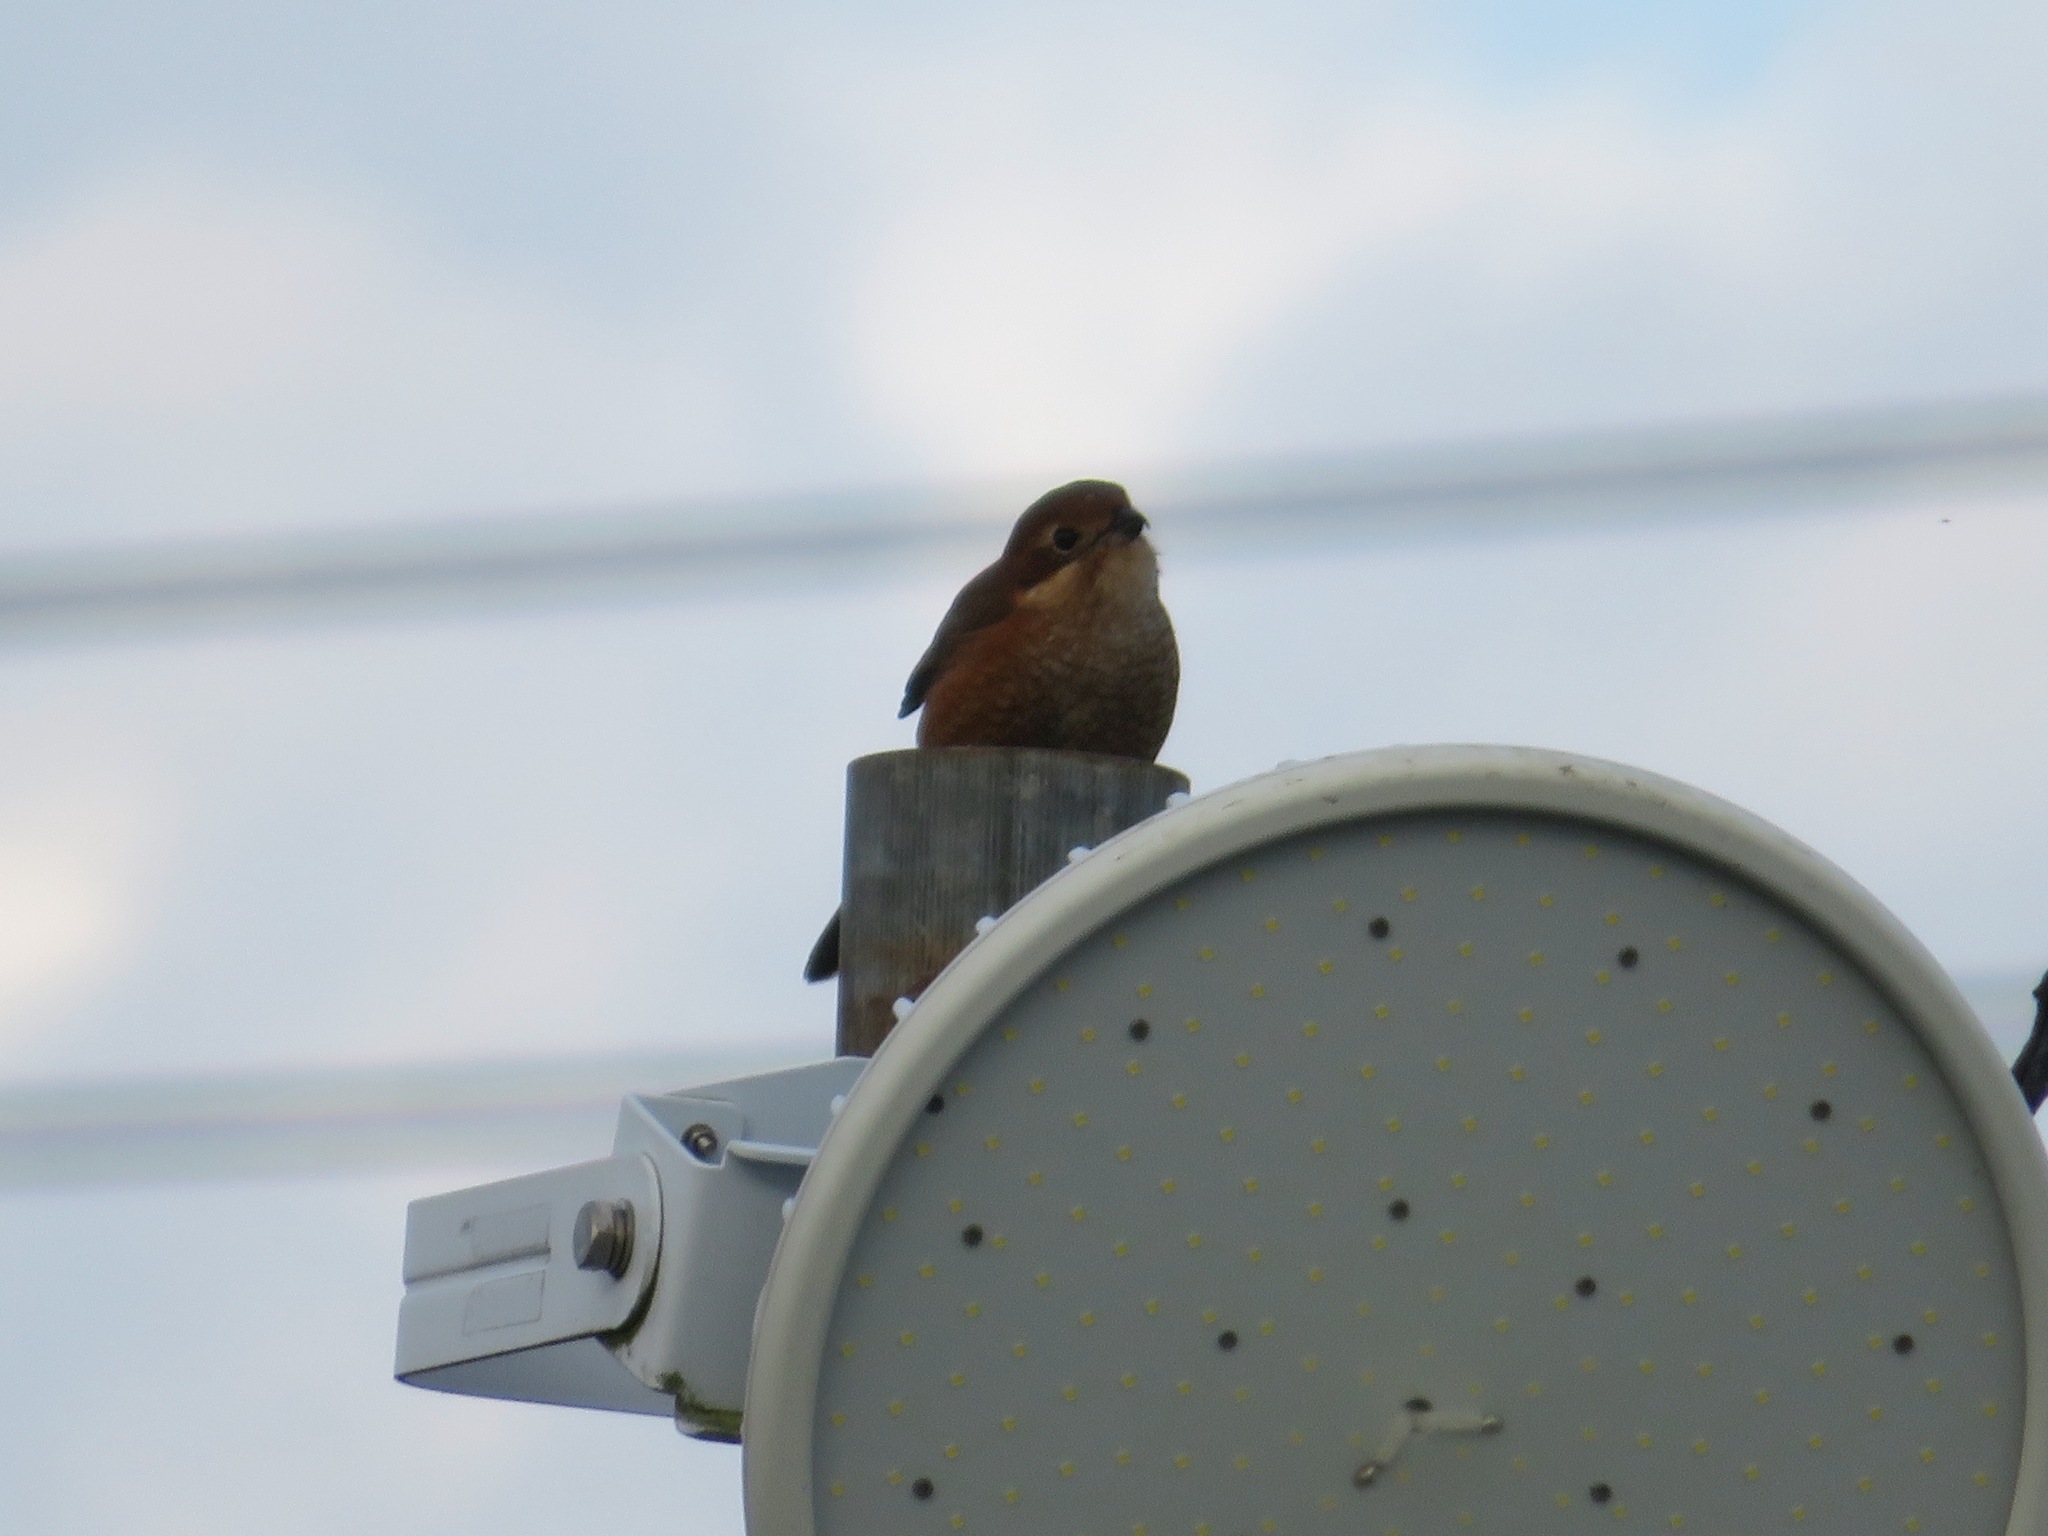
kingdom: Animalia
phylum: Chordata
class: Aves
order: Passeriformes
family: Laniidae
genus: Lanius
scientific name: Lanius bucephalus
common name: Bull-headed shrike
